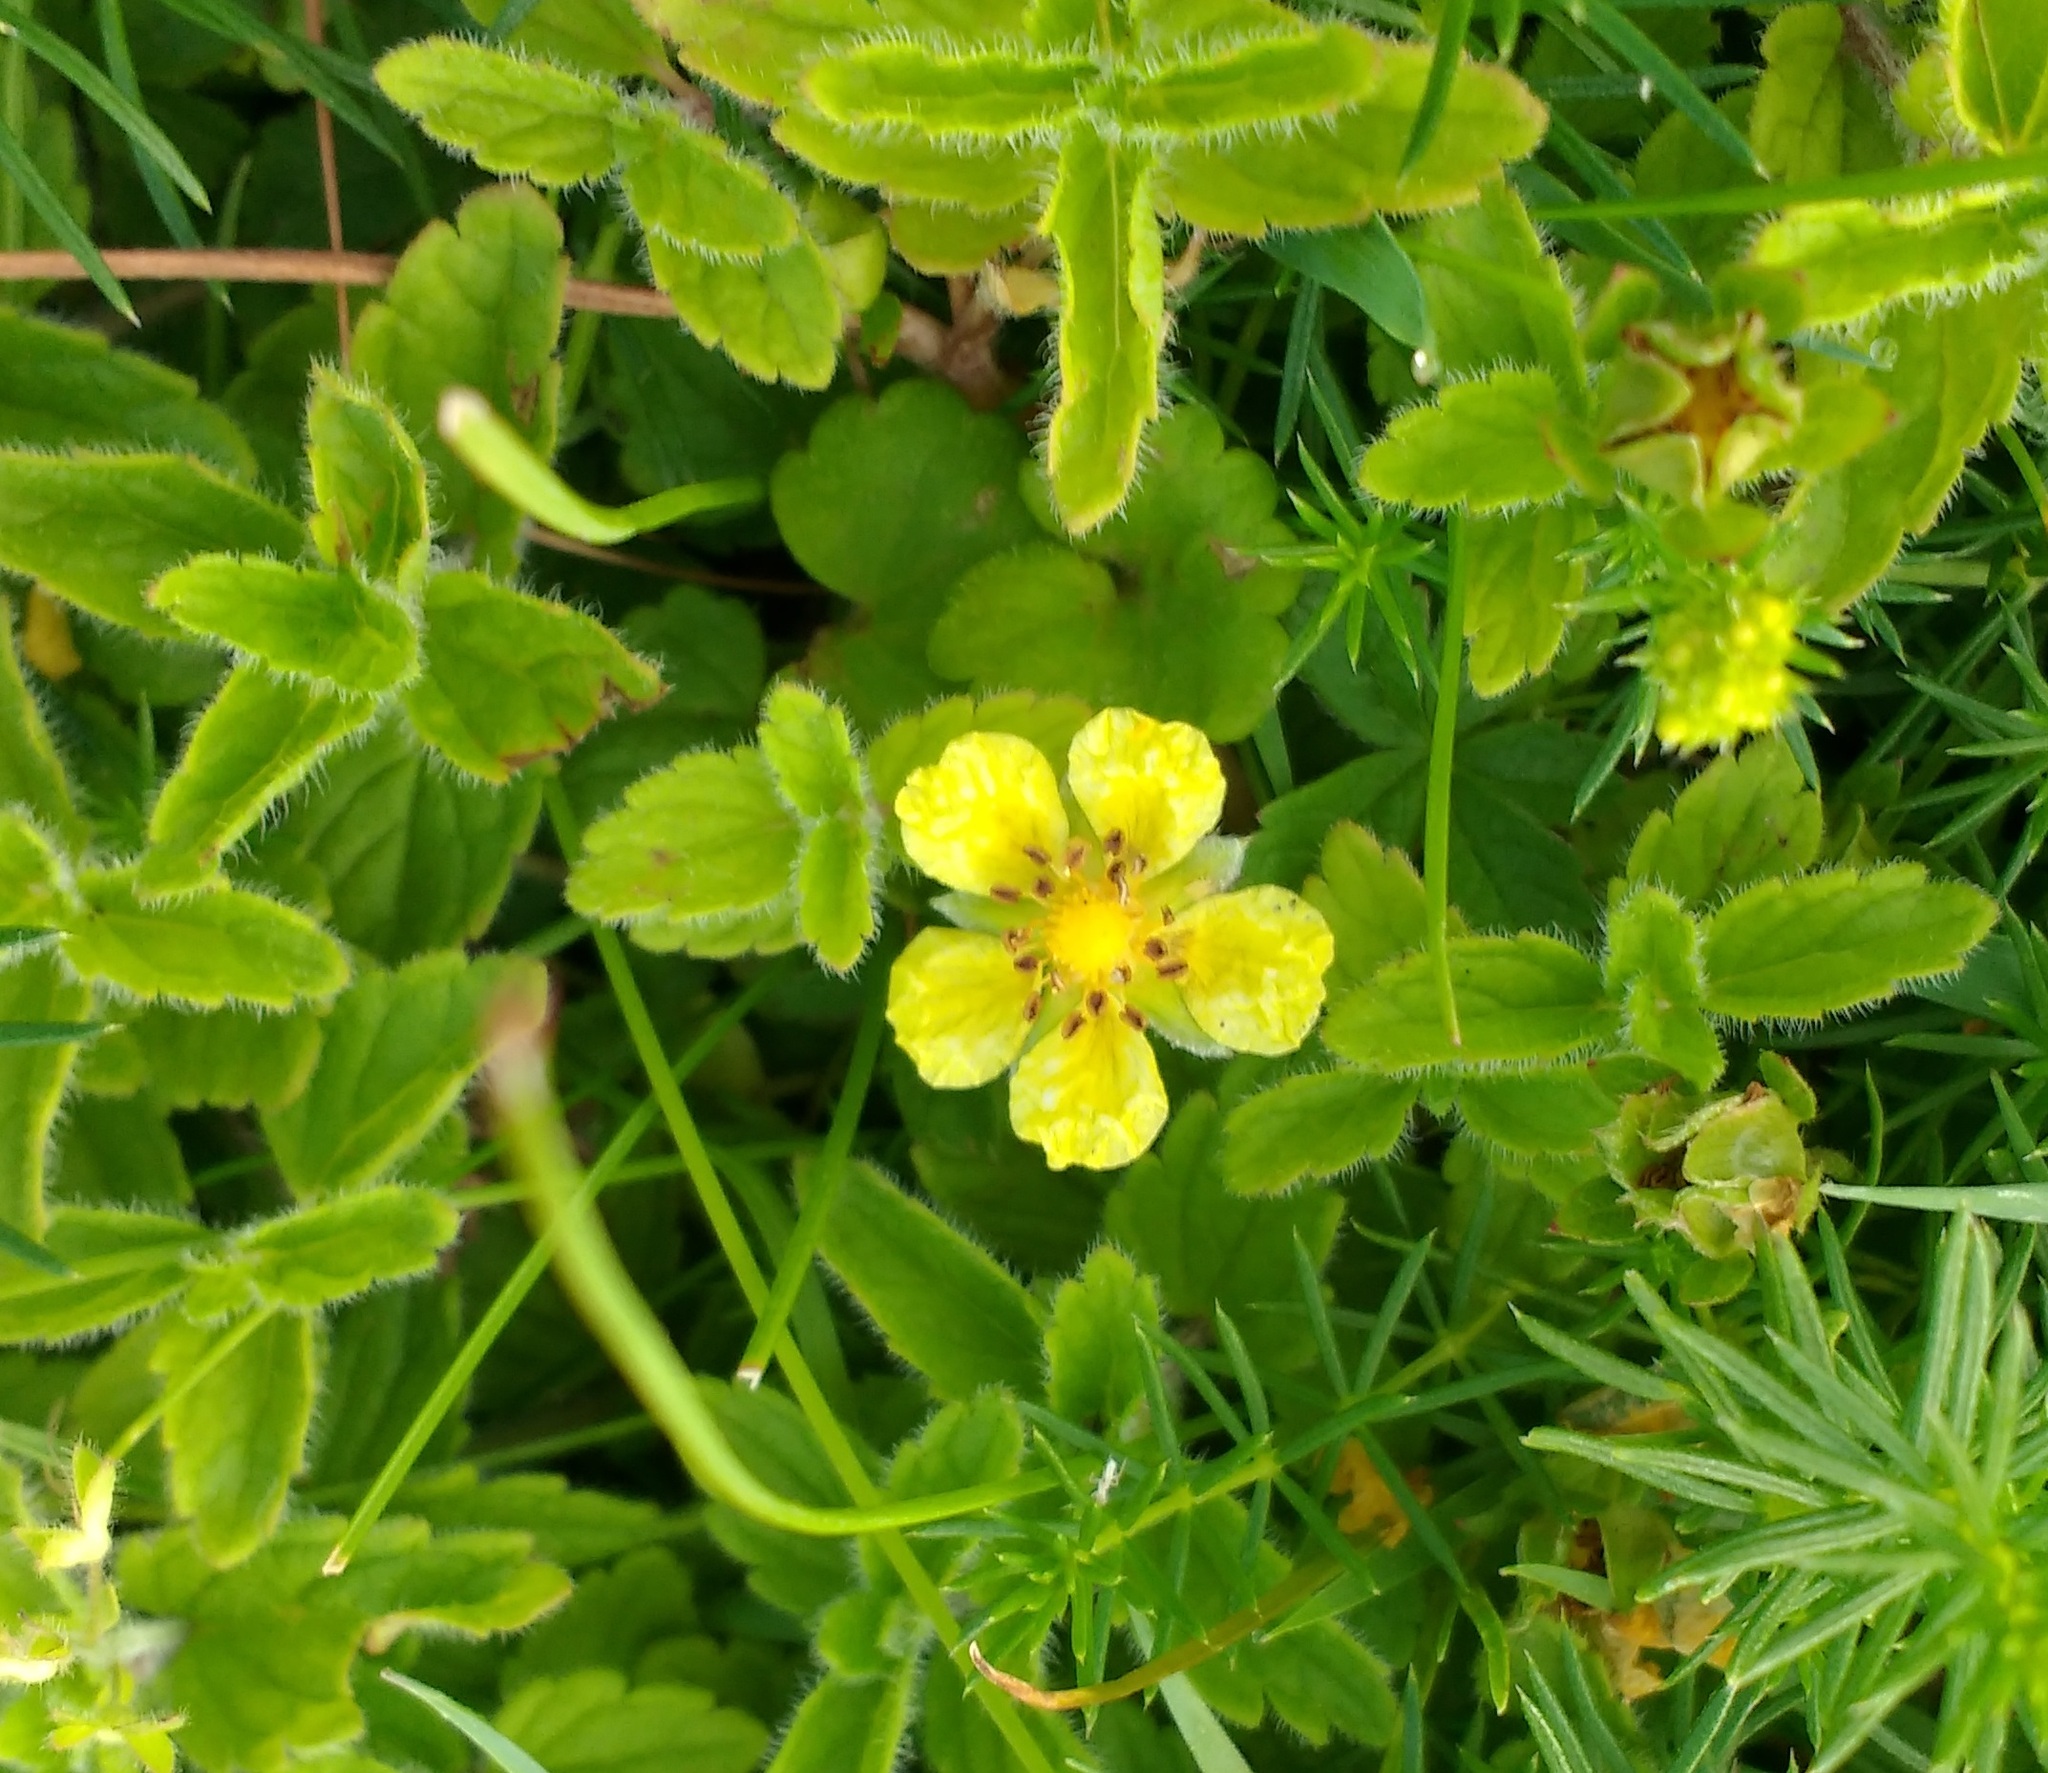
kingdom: Plantae
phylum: Tracheophyta
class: Magnoliopsida
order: Rosales
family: Rosaceae
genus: Potentilla
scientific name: Potentilla reptans
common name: Creeping cinquefoil
